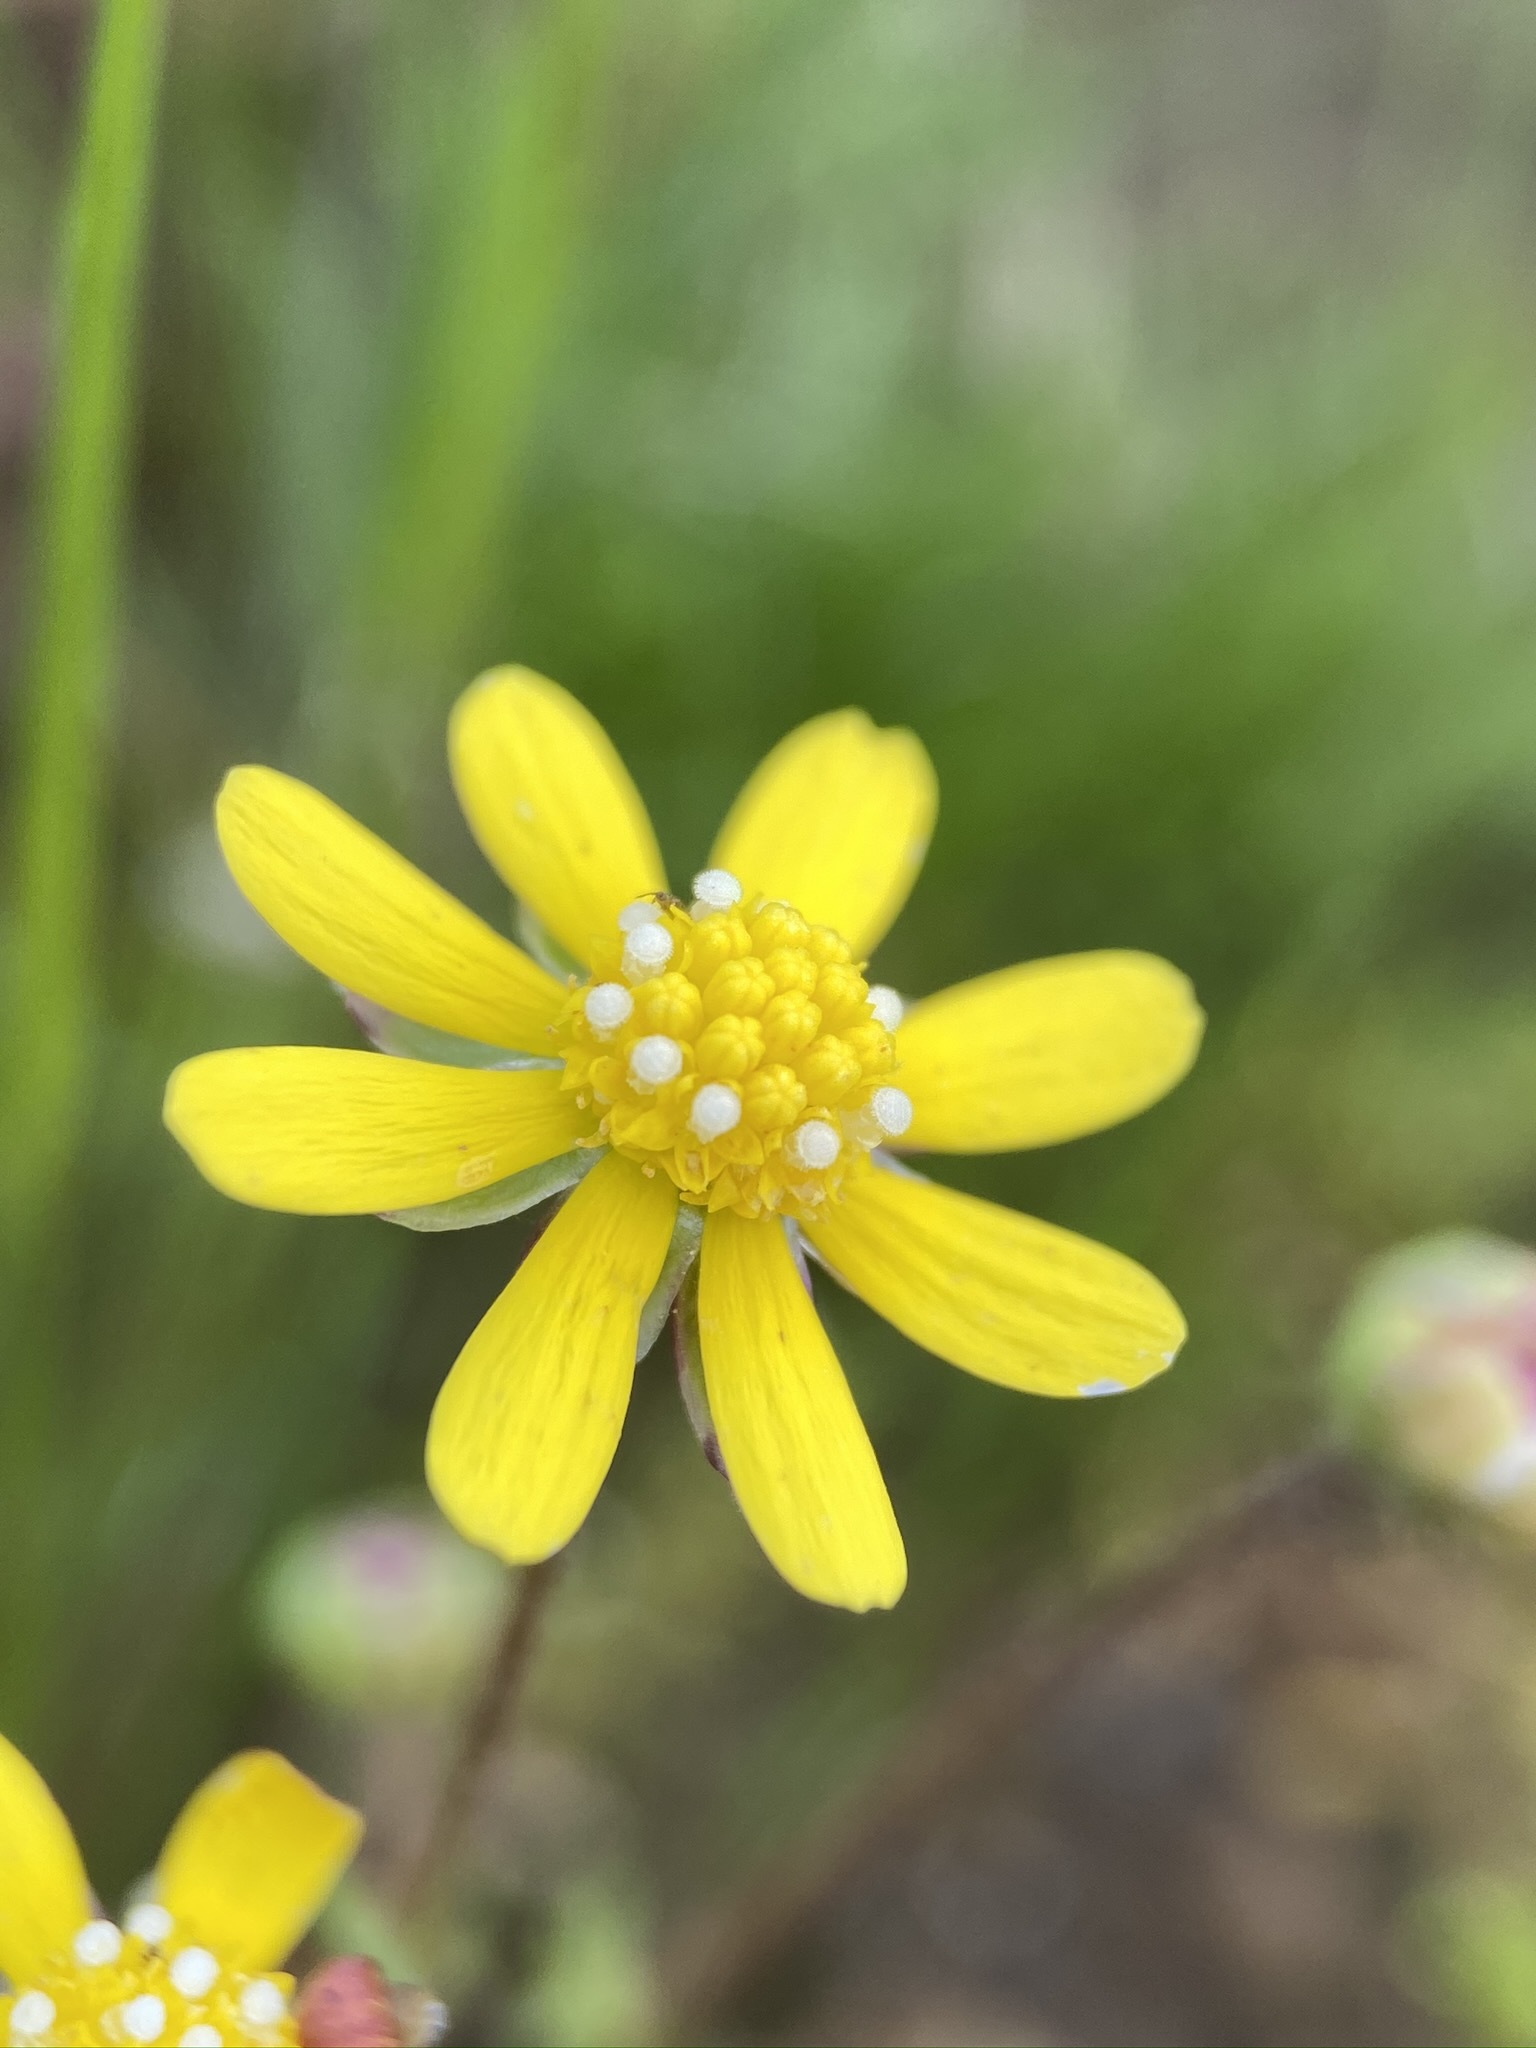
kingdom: Plantae
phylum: Tracheophyta
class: Magnoliopsida
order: Asterales
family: Asteraceae
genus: Blennosperma
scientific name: Blennosperma nanum
